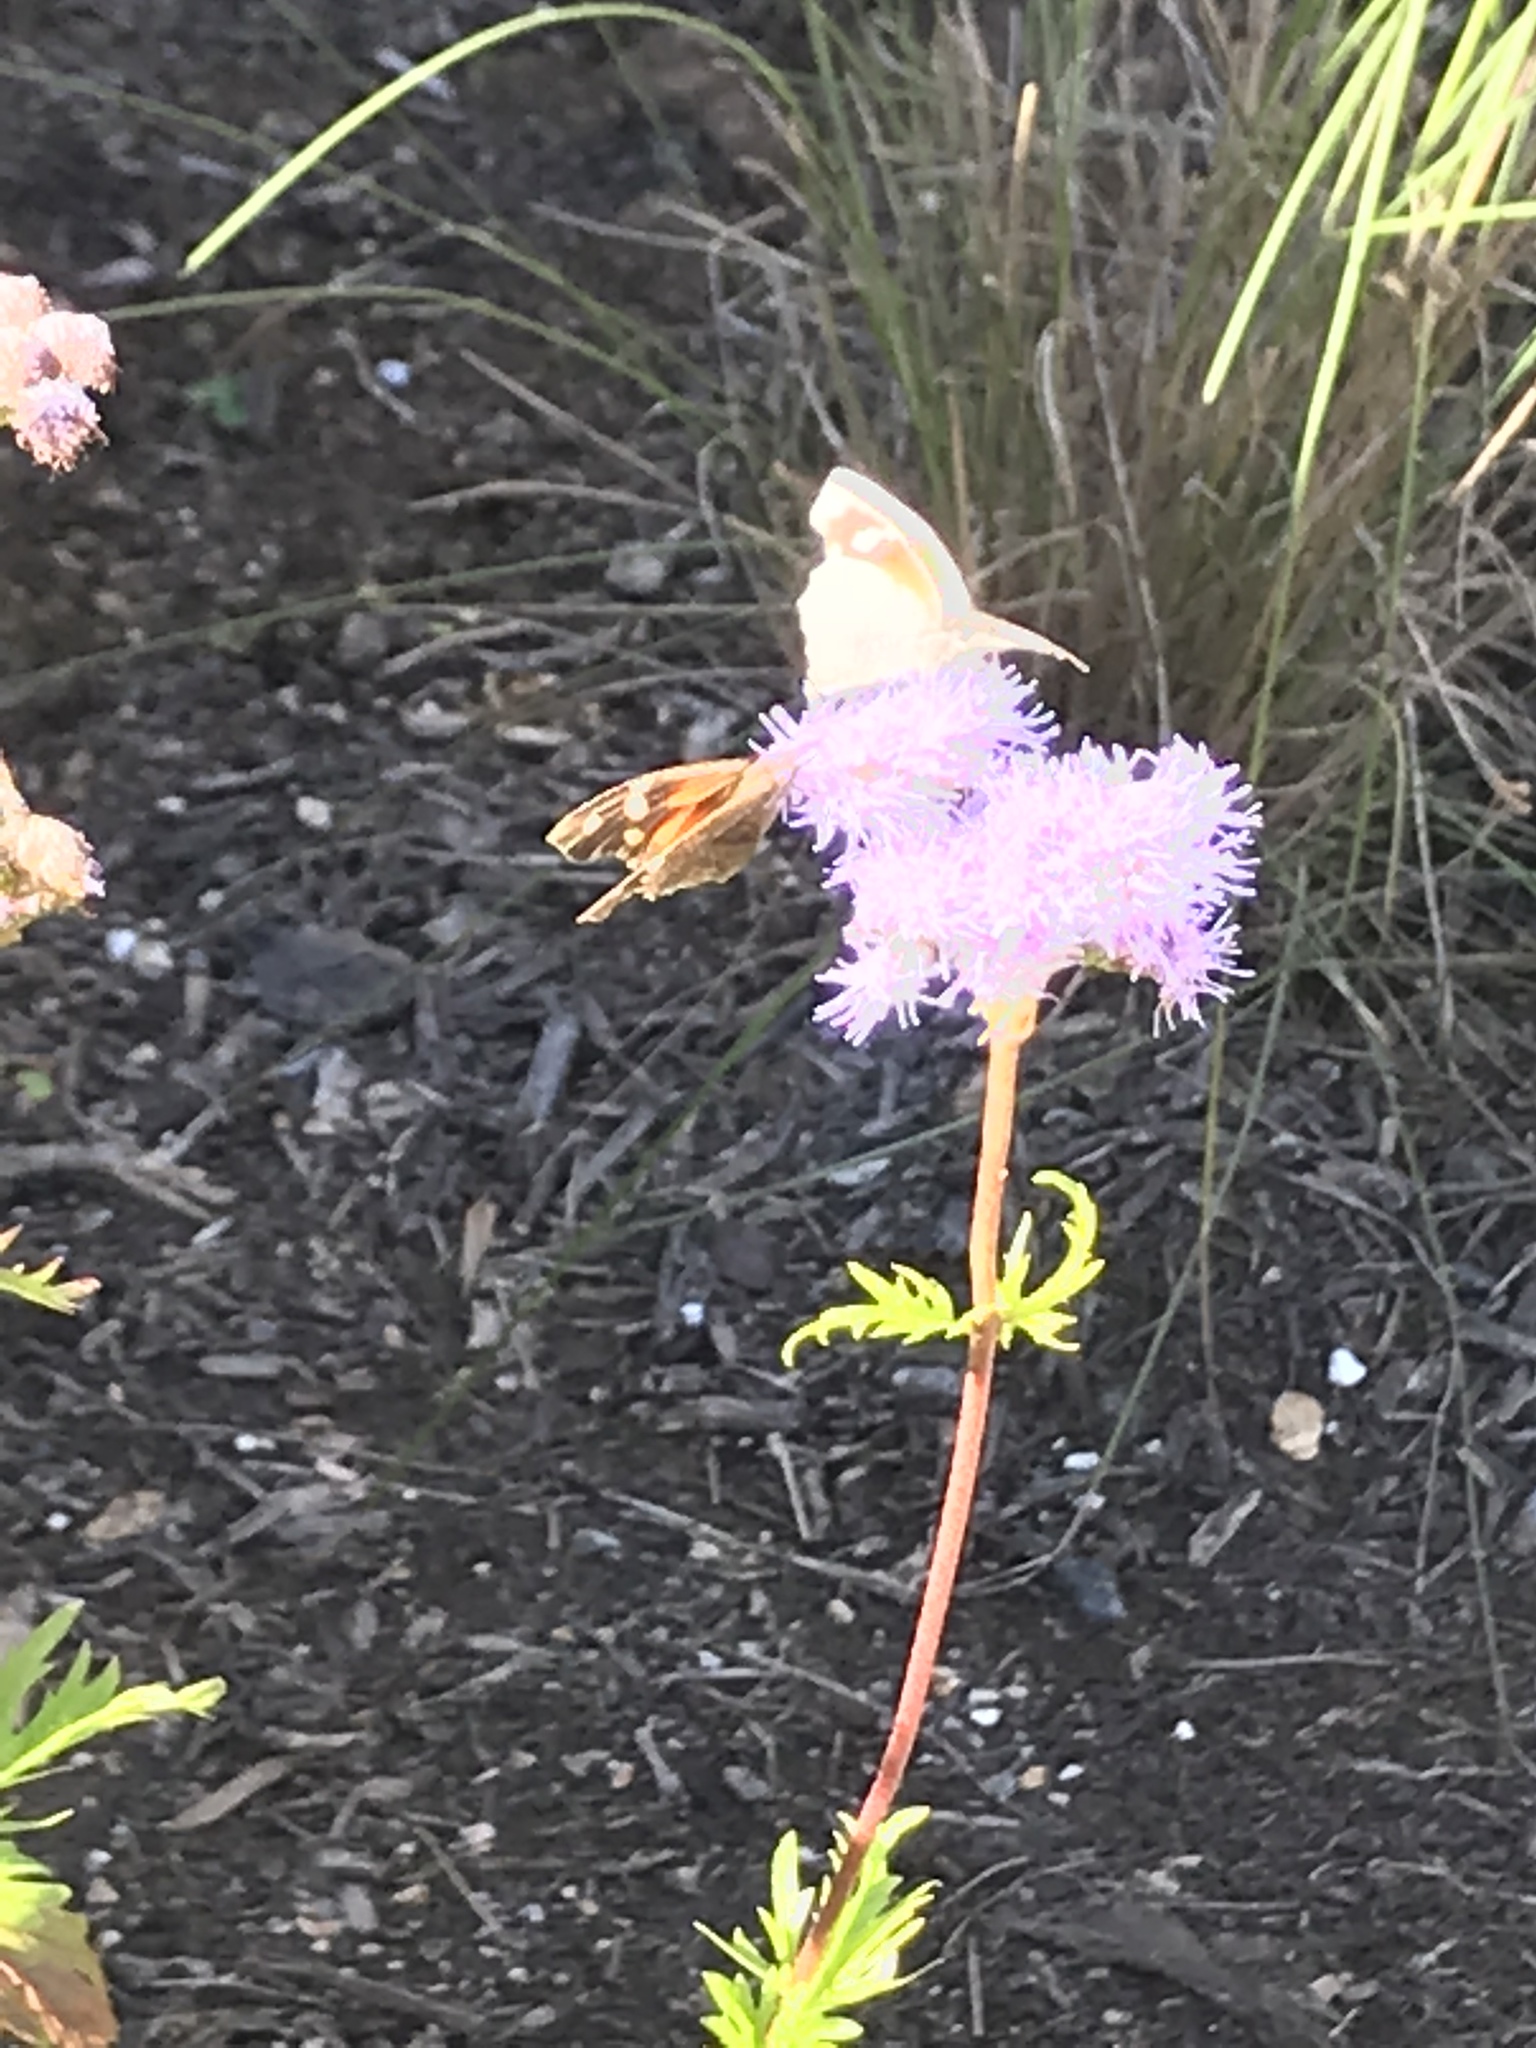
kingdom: Animalia
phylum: Arthropoda
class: Insecta
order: Lepidoptera
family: Nymphalidae
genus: Libytheana
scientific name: Libytheana carinenta
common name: American snout
